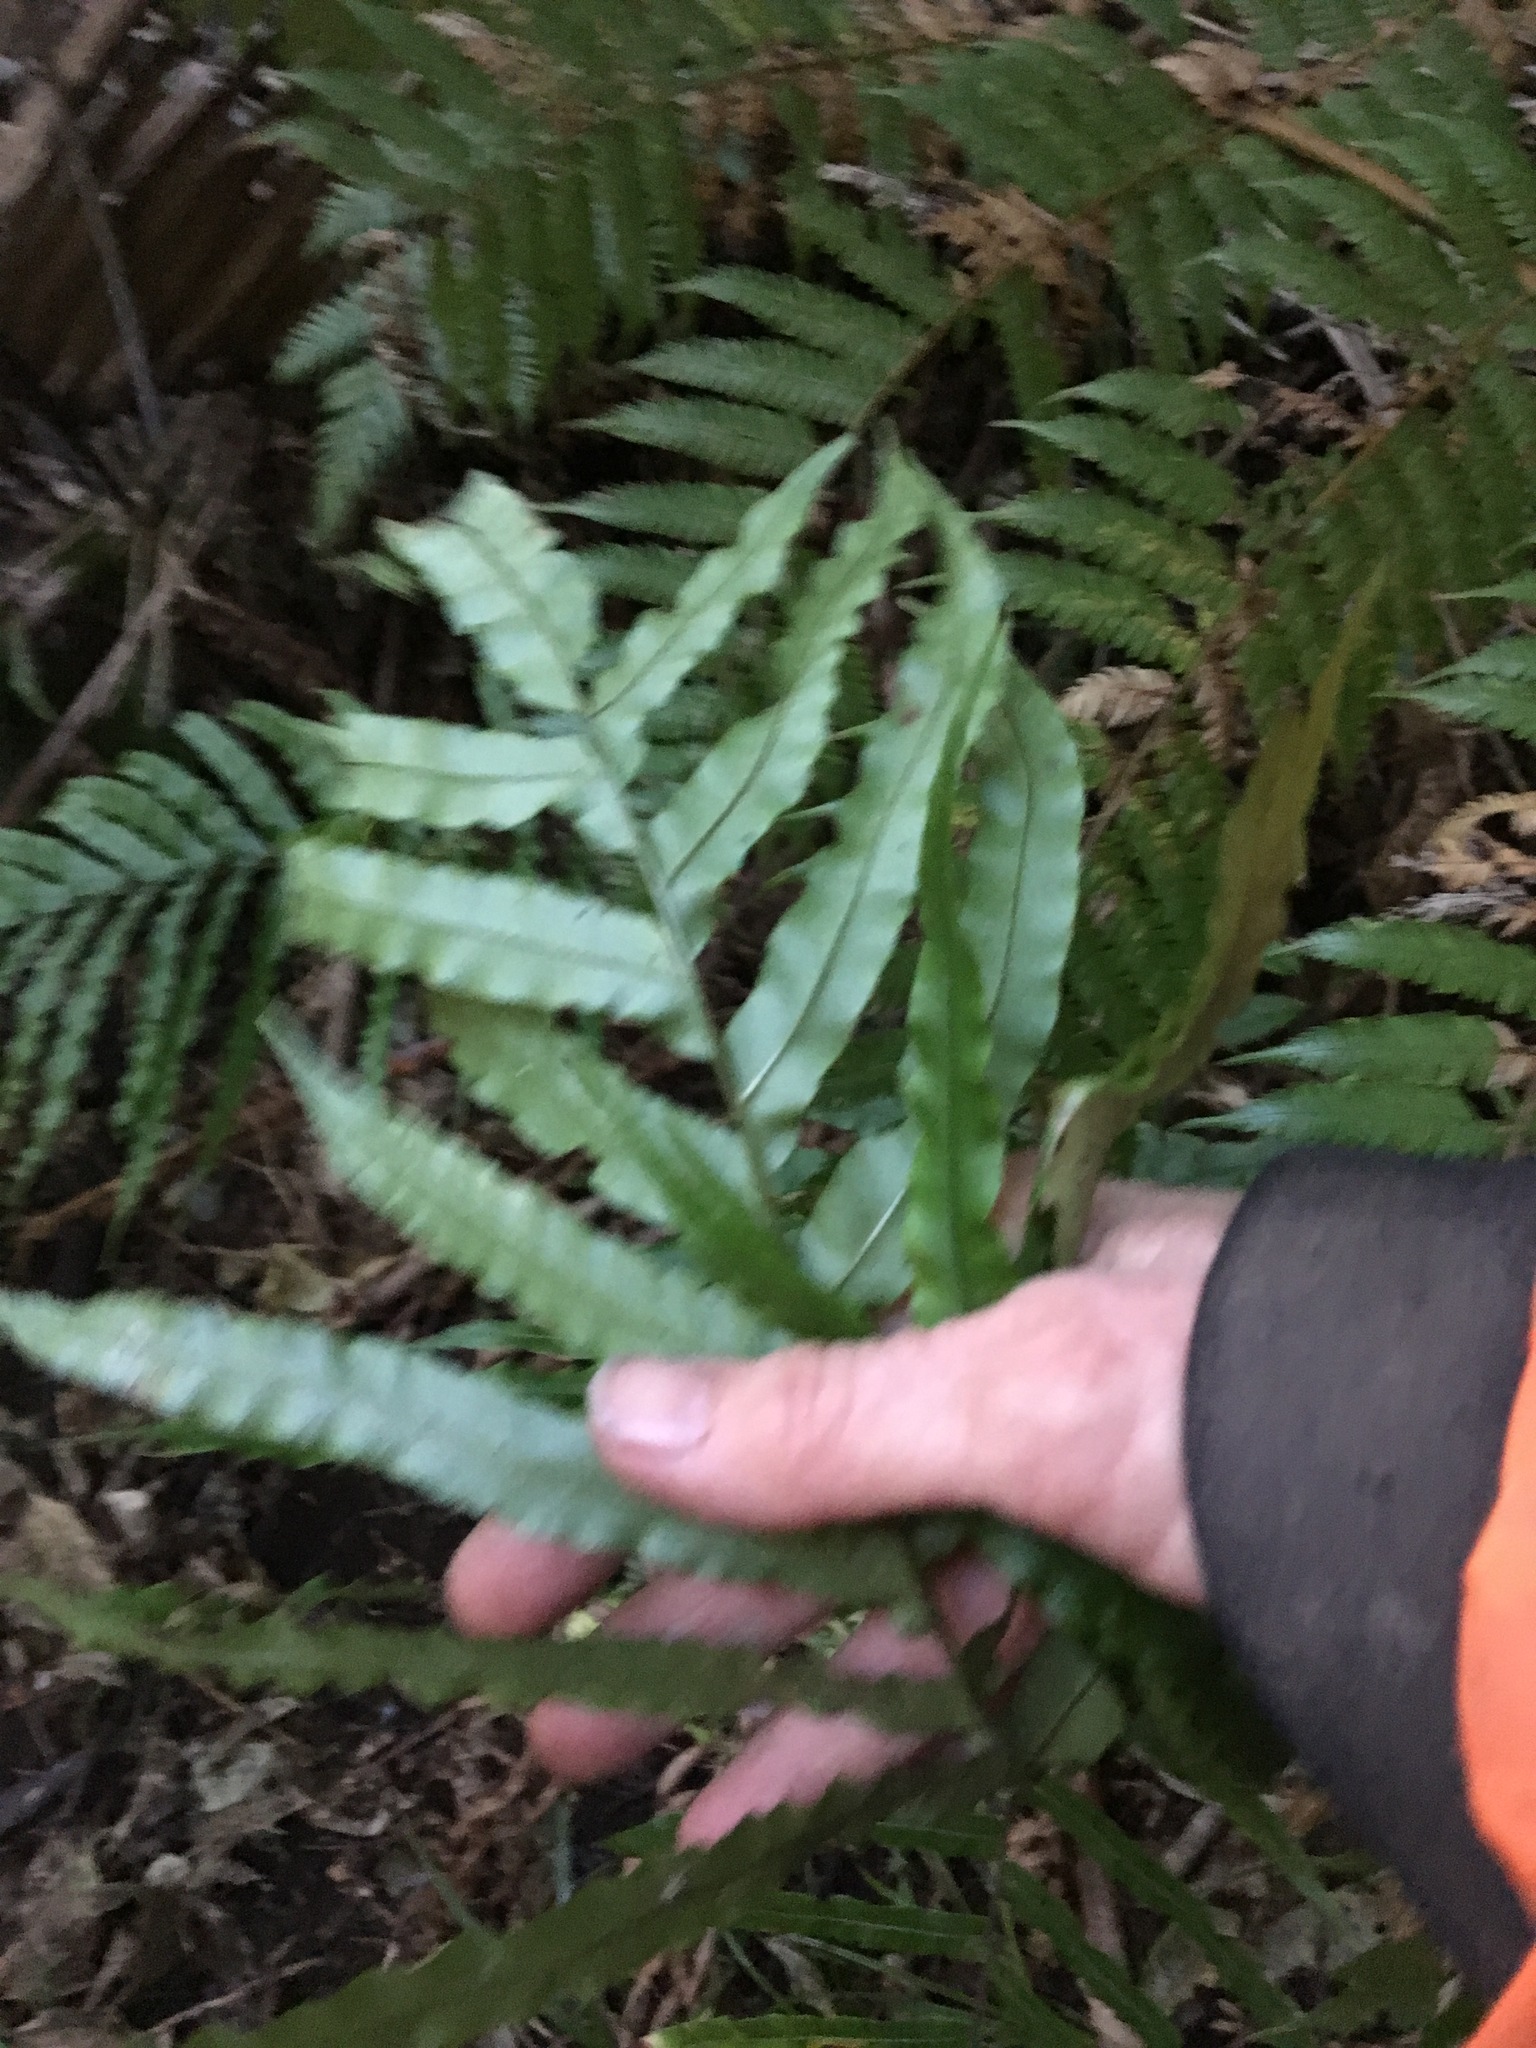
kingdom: Plantae
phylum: Tracheophyta
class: Polypodiopsida
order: Polypodiales
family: Blechnaceae
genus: Parablechnum
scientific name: Parablechnum novae-zelandiae
